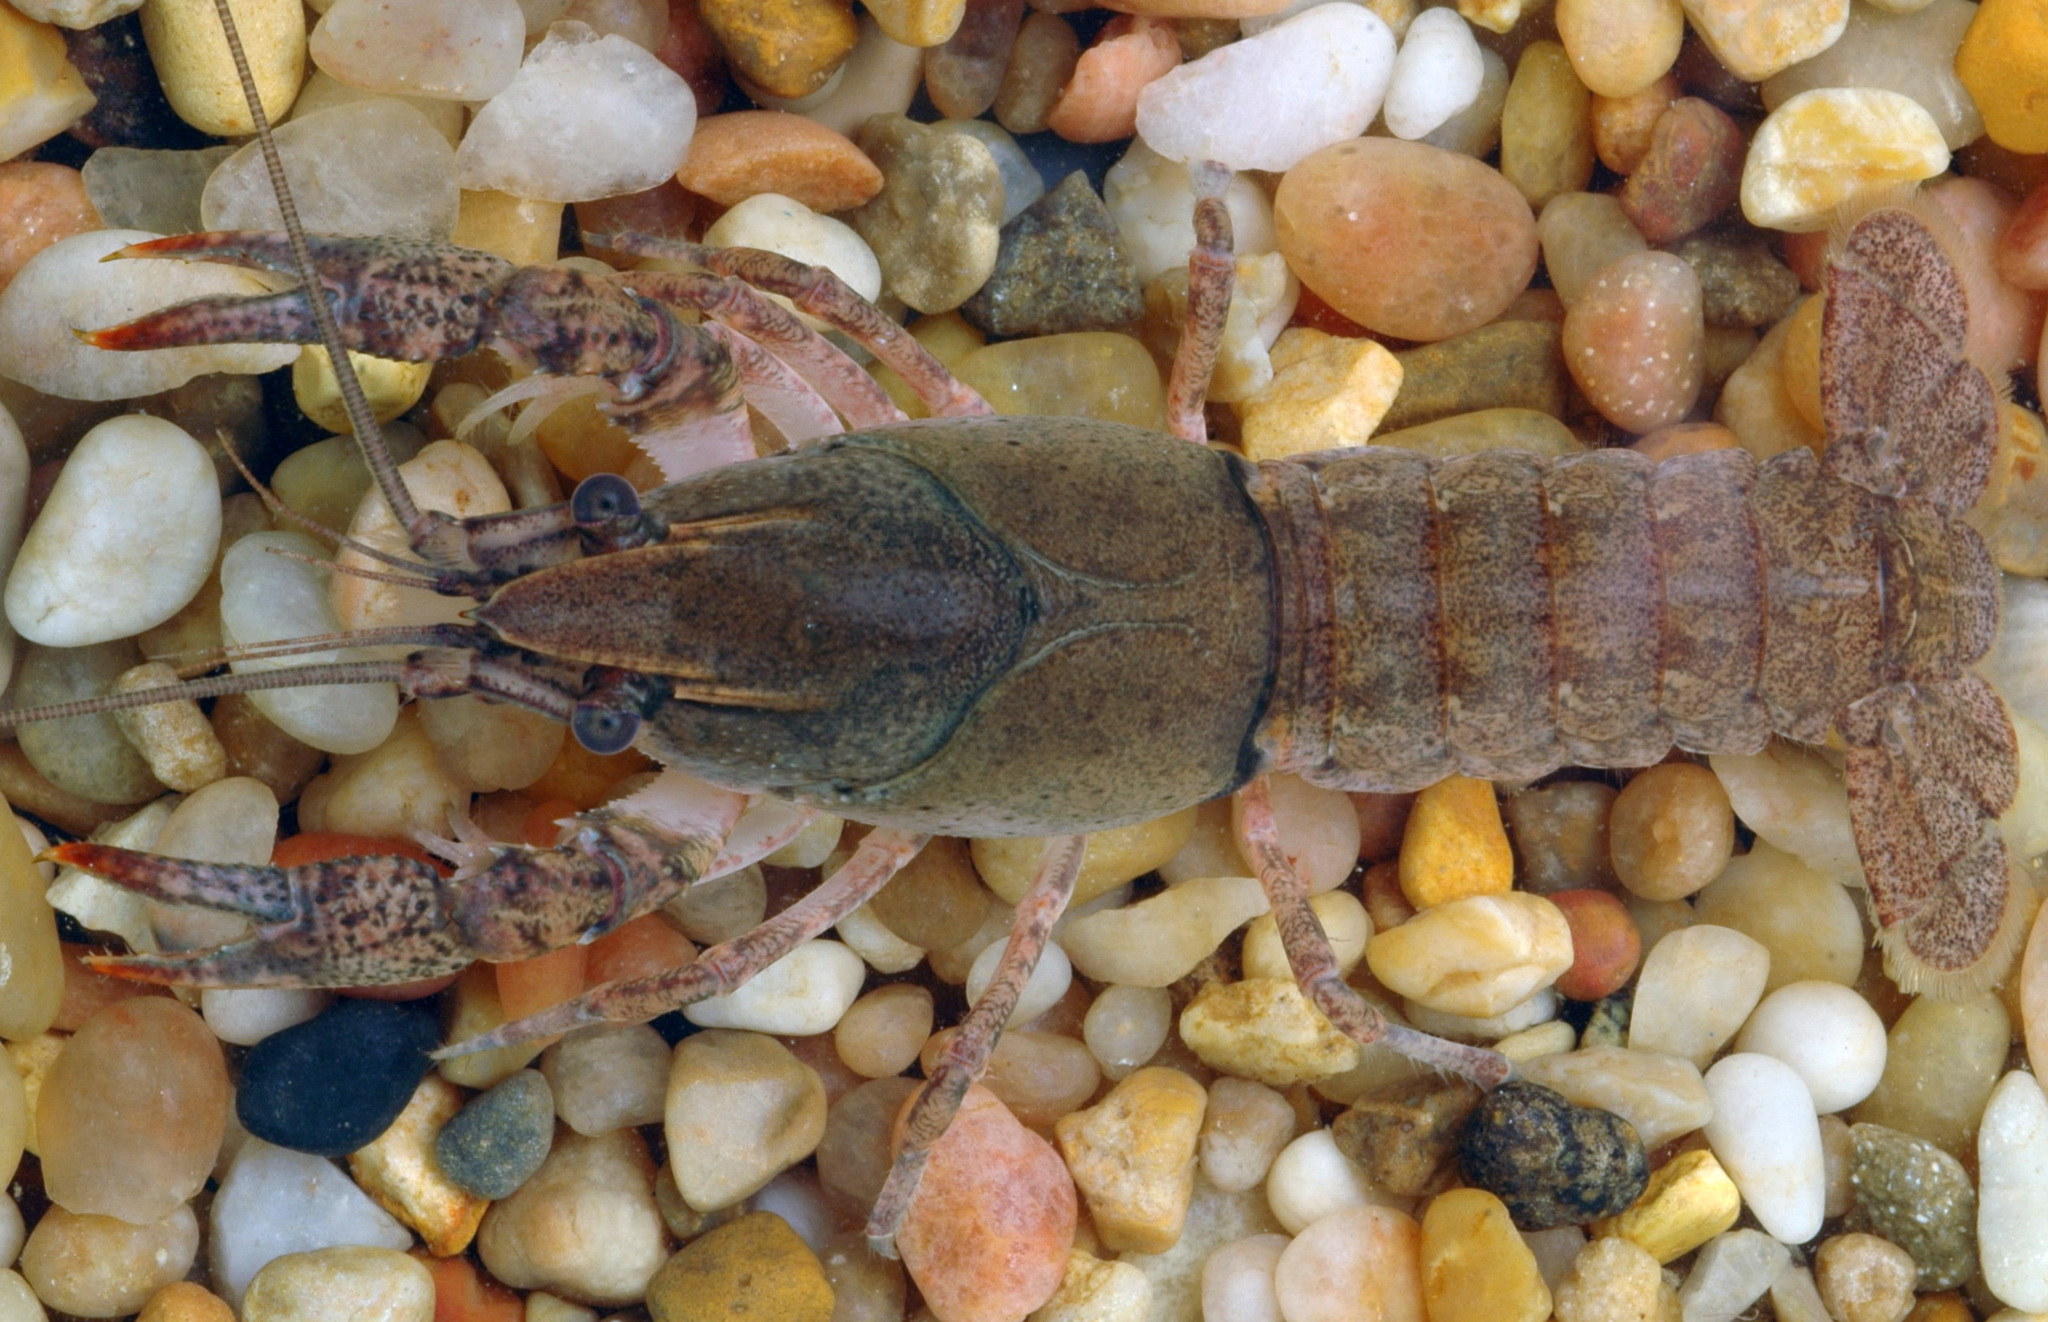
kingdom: Animalia
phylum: Arthropoda
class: Malacostraca
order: Decapoda
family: Cambaridae
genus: Procambarus
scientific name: Procambarus kensleyi
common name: Free state chimney crawfish
